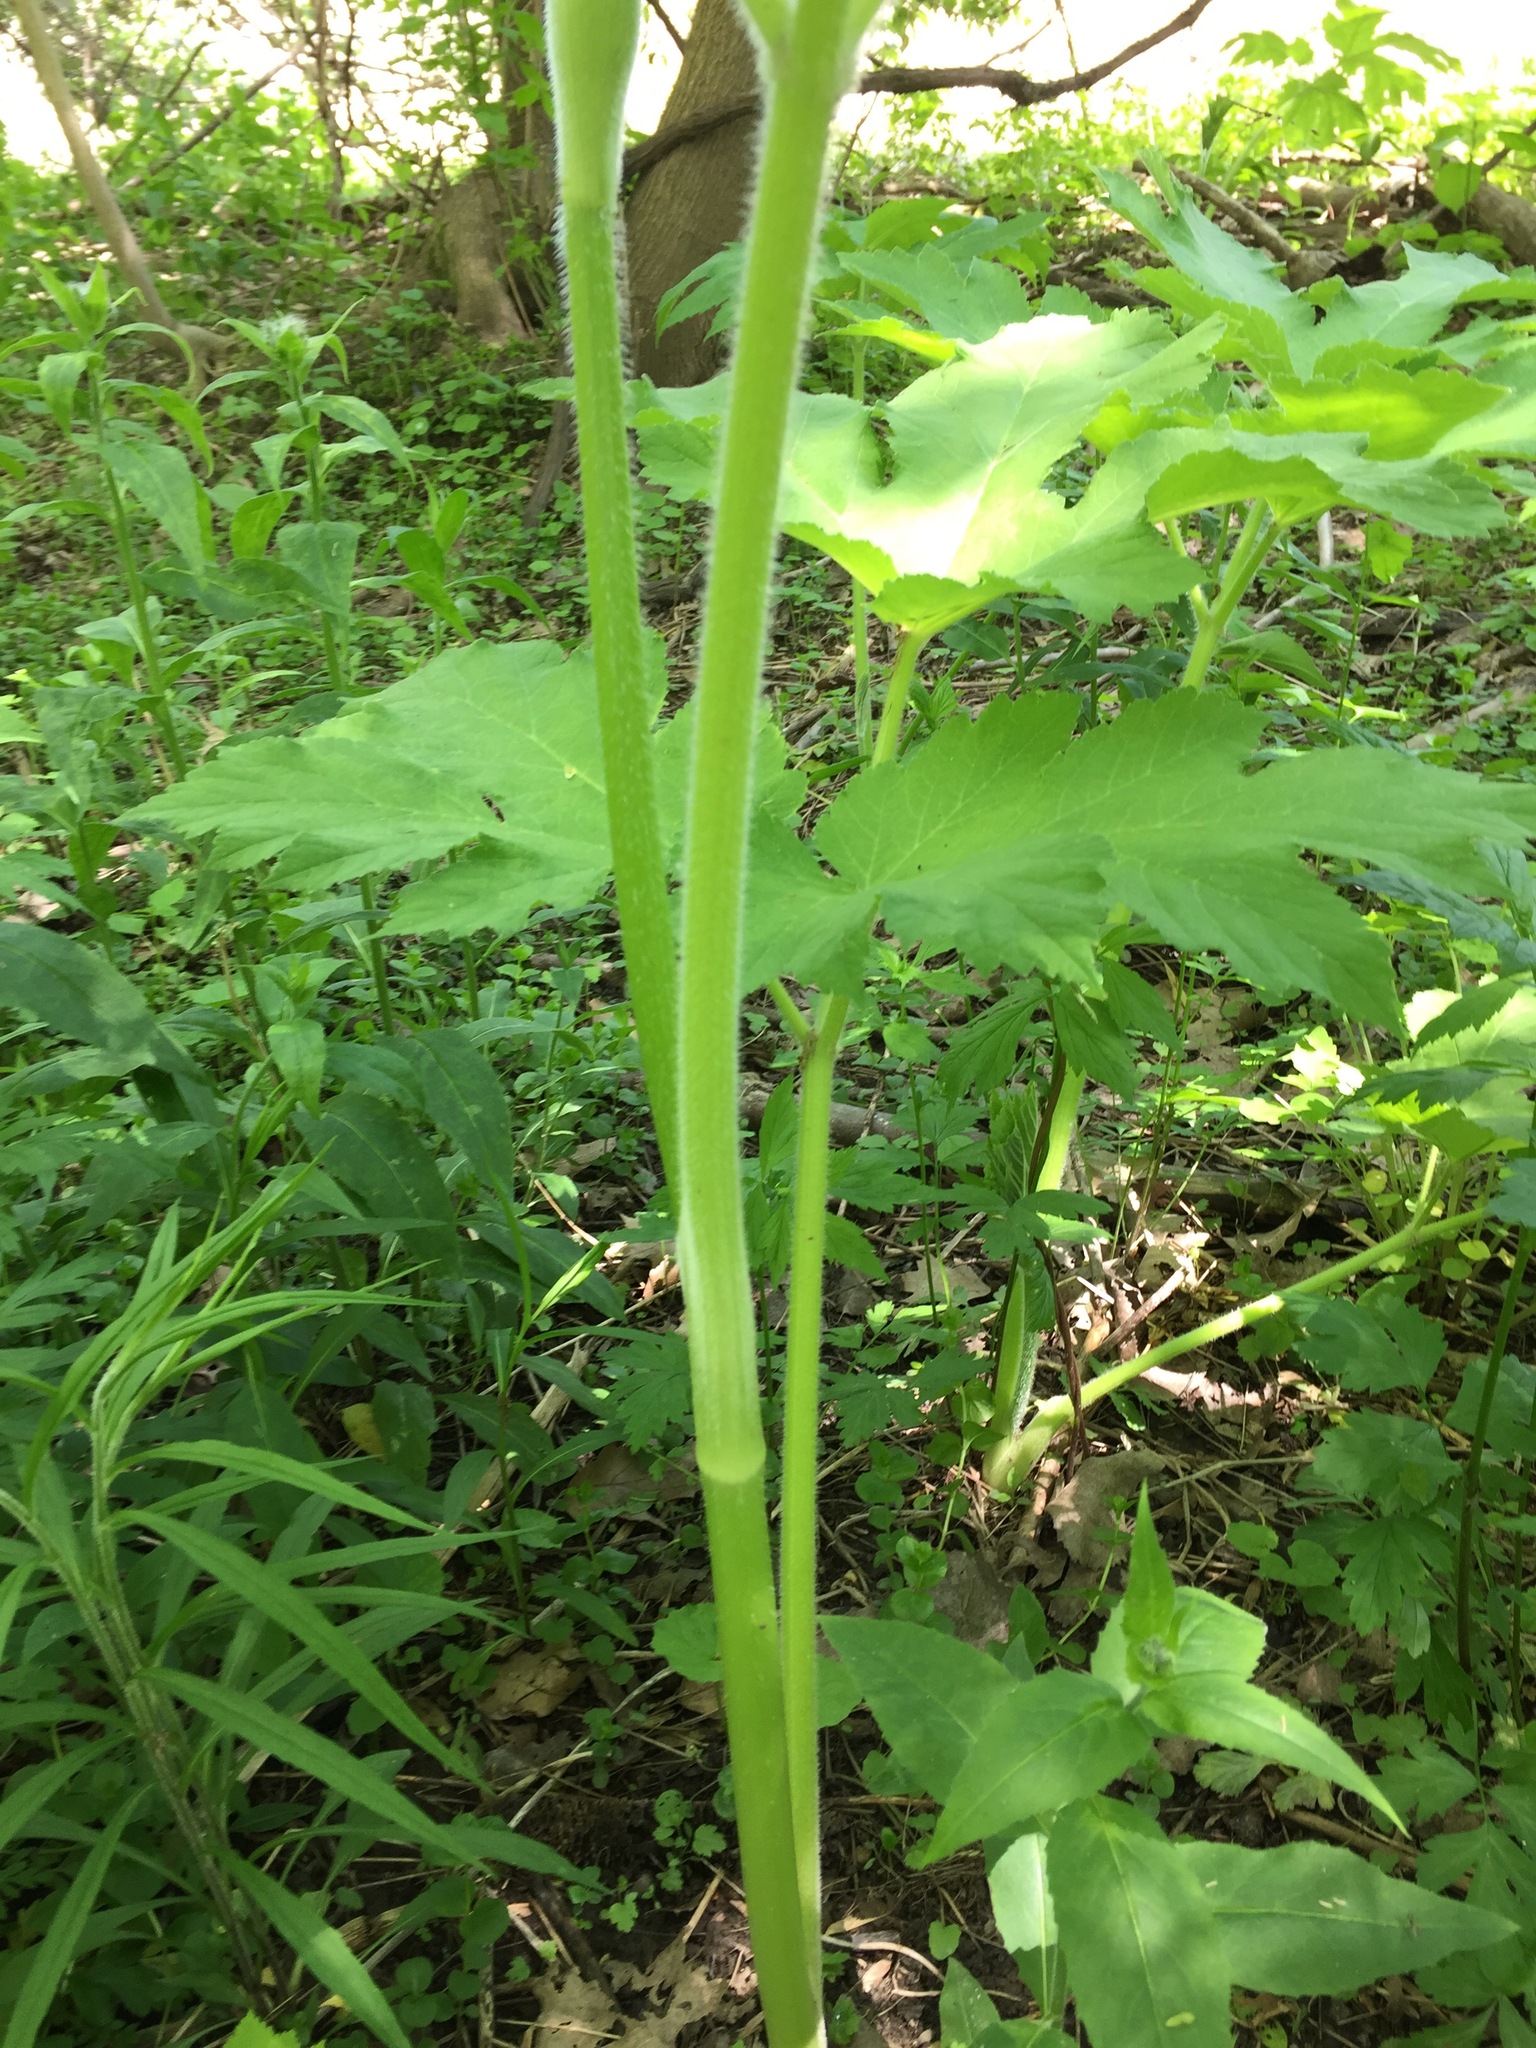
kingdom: Plantae
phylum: Tracheophyta
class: Magnoliopsida
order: Apiales
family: Apiaceae
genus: Heracleum
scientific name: Heracleum maximum
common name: American cow parsnip
